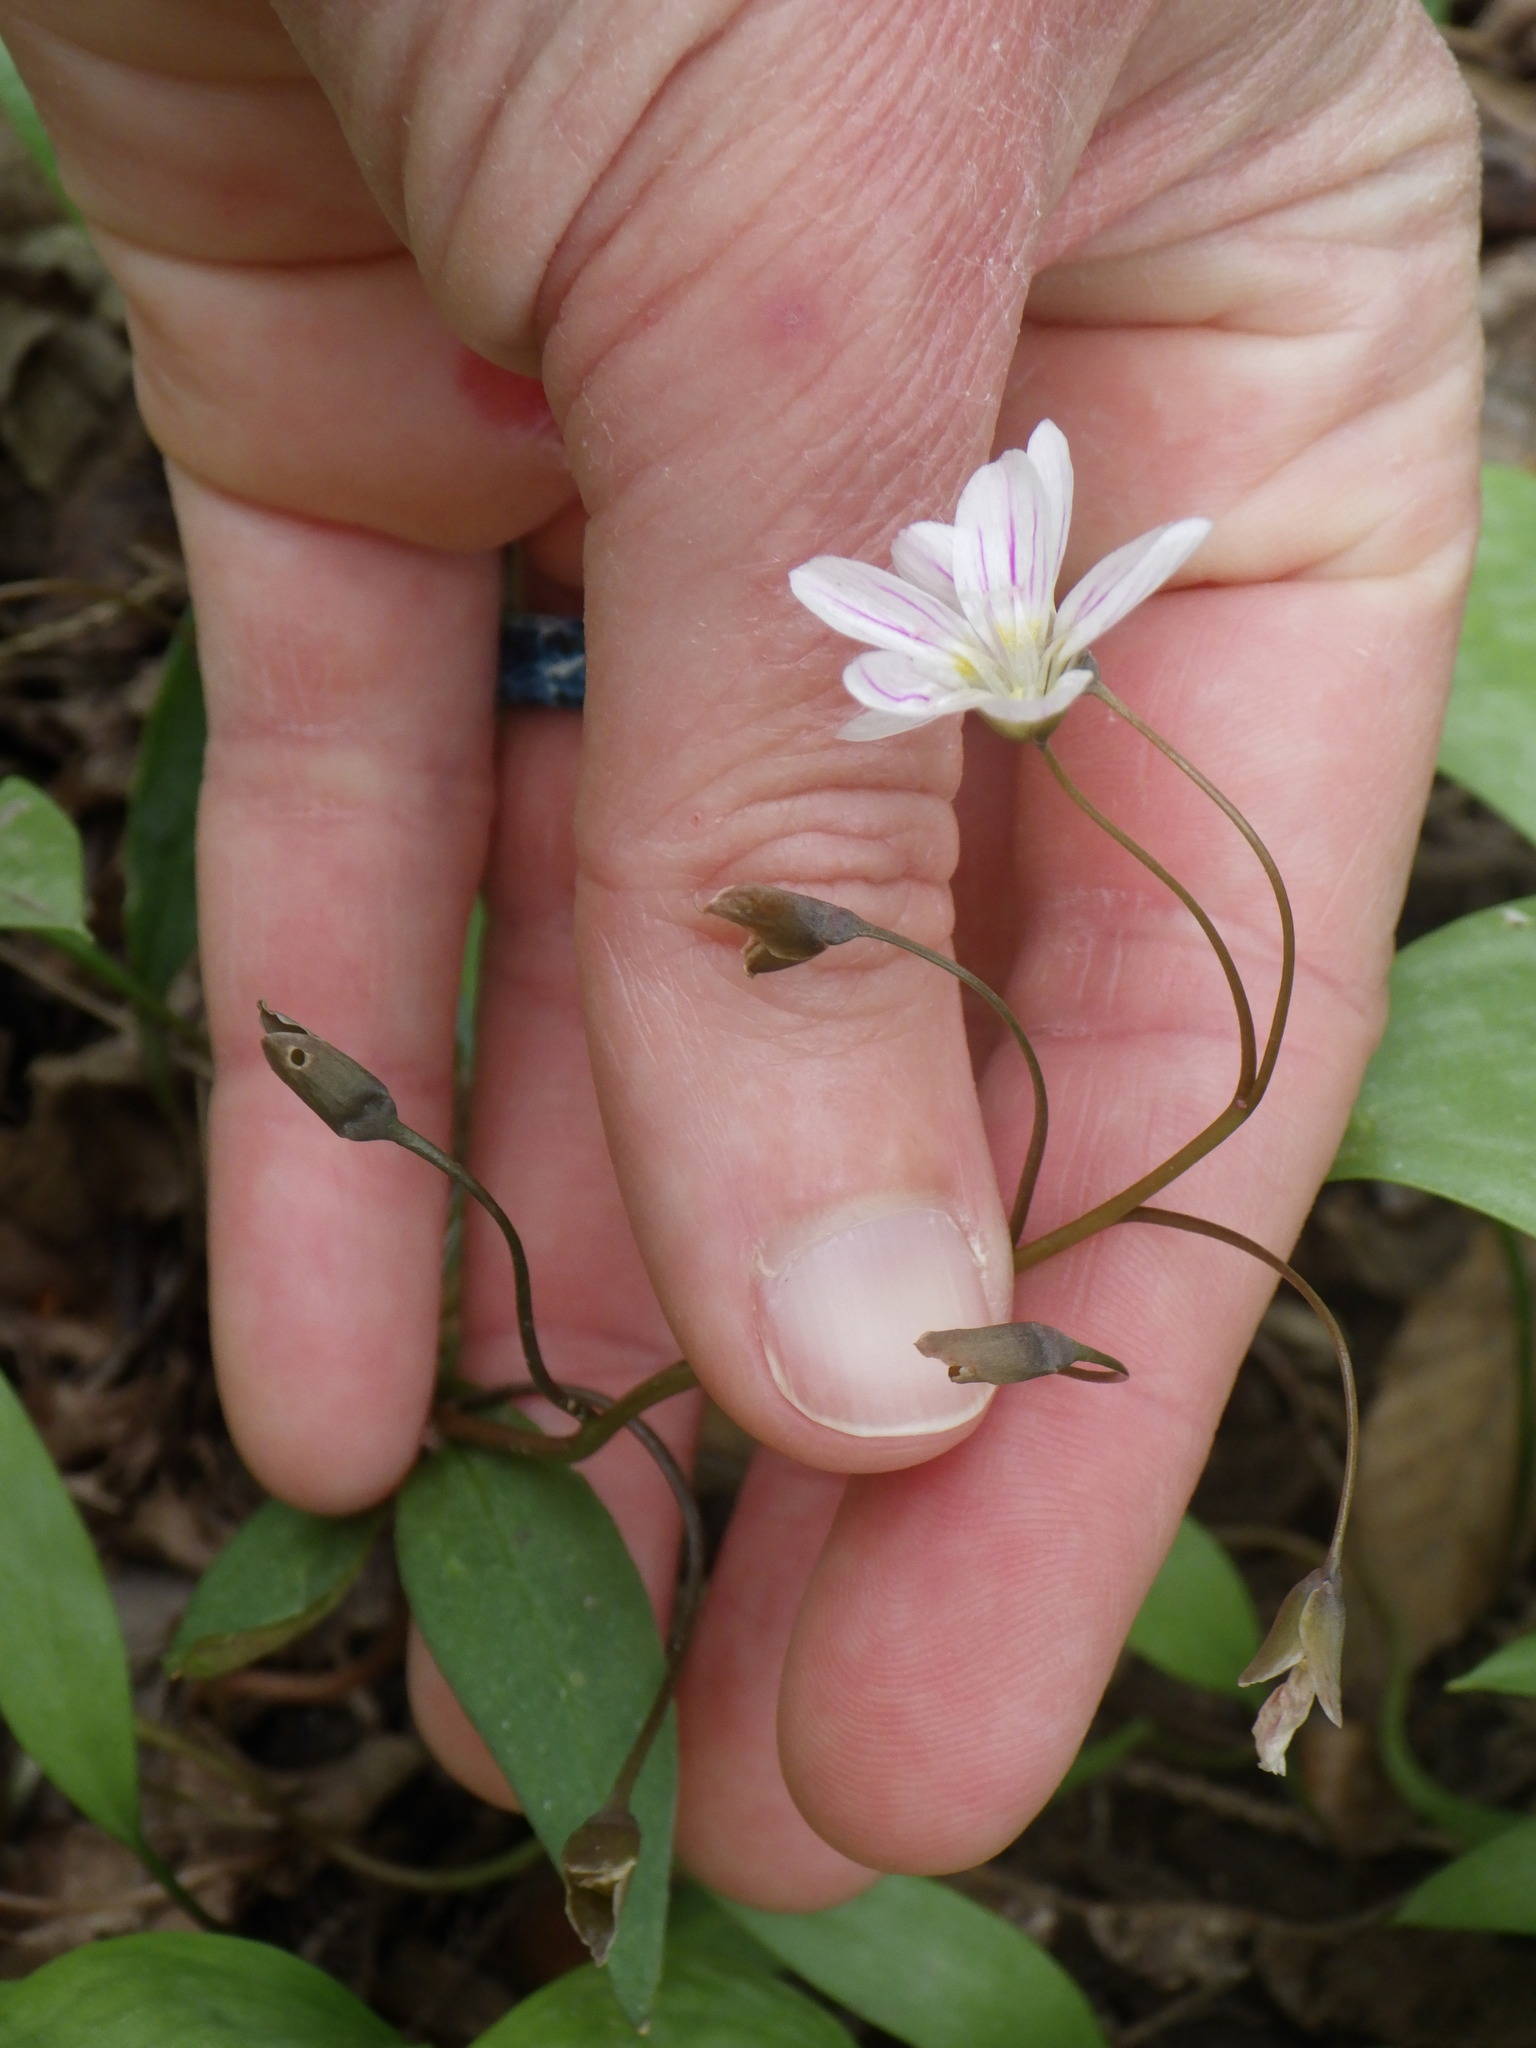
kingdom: Plantae
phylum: Tracheophyta
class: Magnoliopsida
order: Caryophyllales
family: Montiaceae
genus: Claytonia
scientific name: Claytonia caroliniana
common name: Carolina spring beauty
